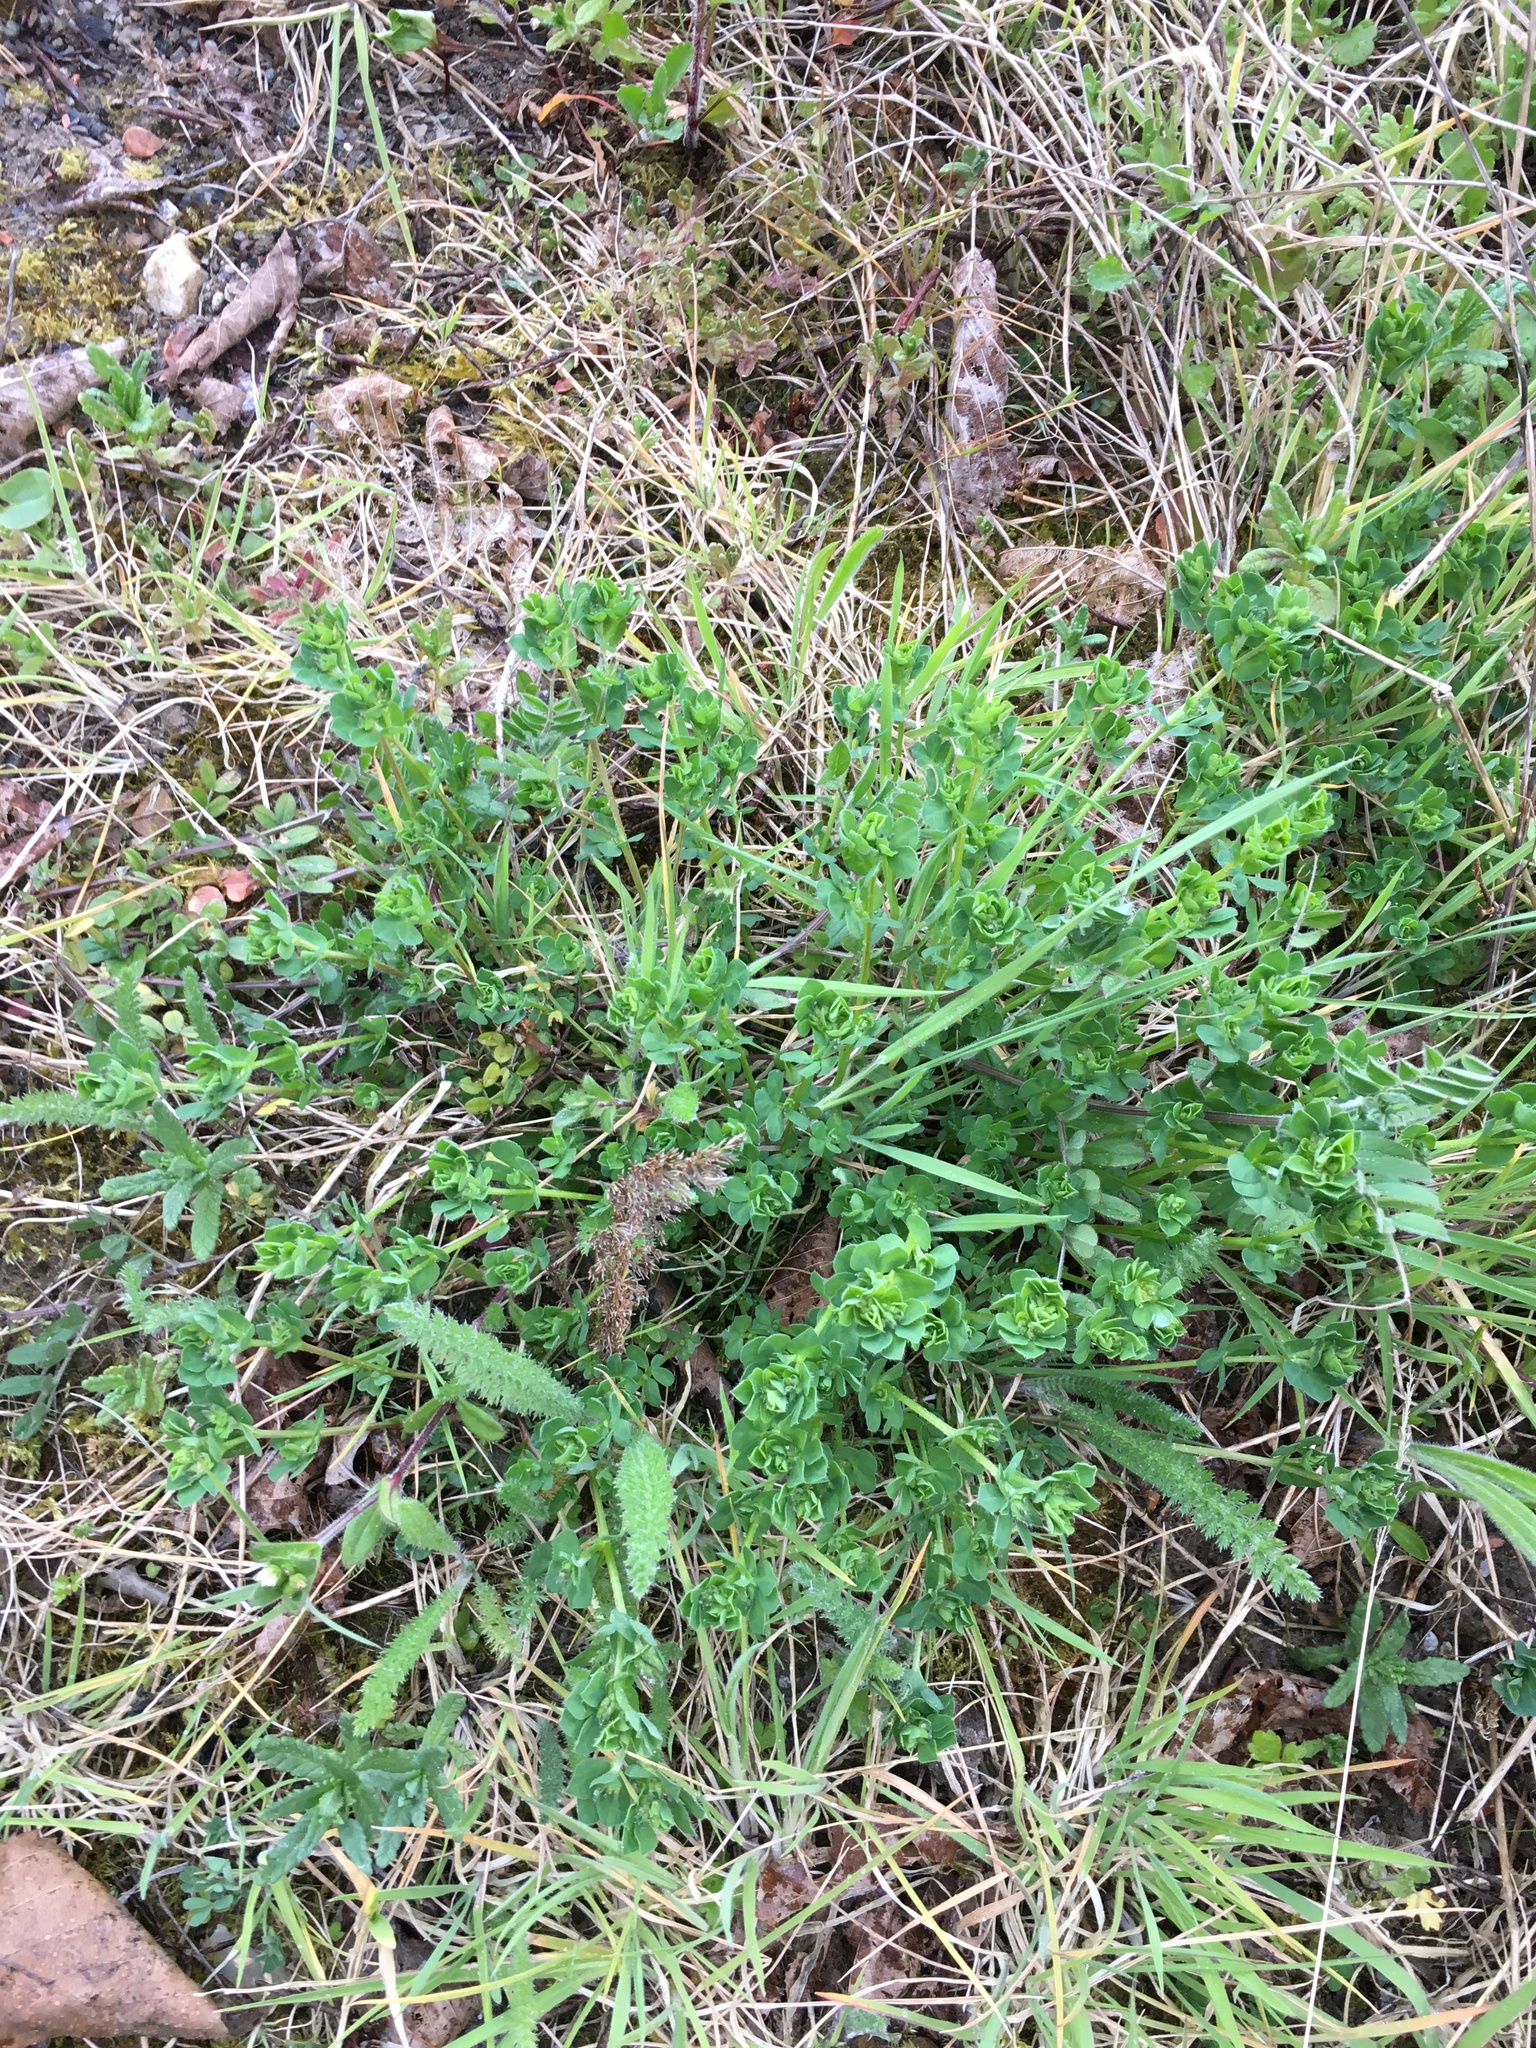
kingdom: Plantae
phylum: Tracheophyta
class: Magnoliopsida
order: Asterales
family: Asteraceae
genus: Achillea
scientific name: Achillea millefolium
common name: Yarrow
